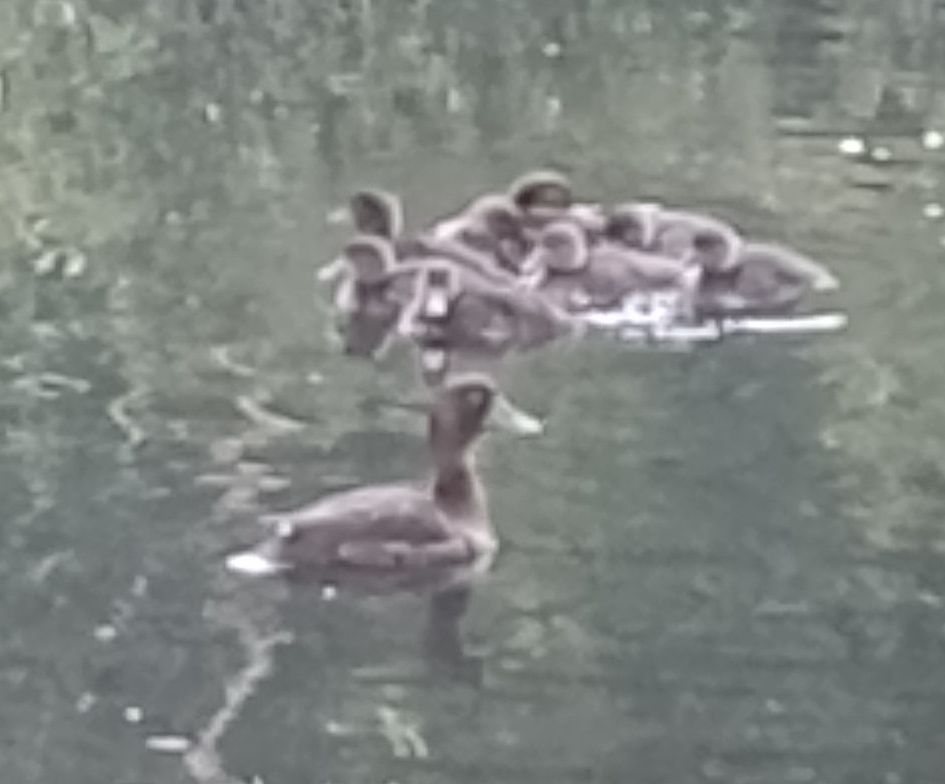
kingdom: Animalia
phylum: Chordata
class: Aves
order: Anseriformes
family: Anatidae
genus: Aythya
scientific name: Aythya fuligula
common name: Tufted duck
